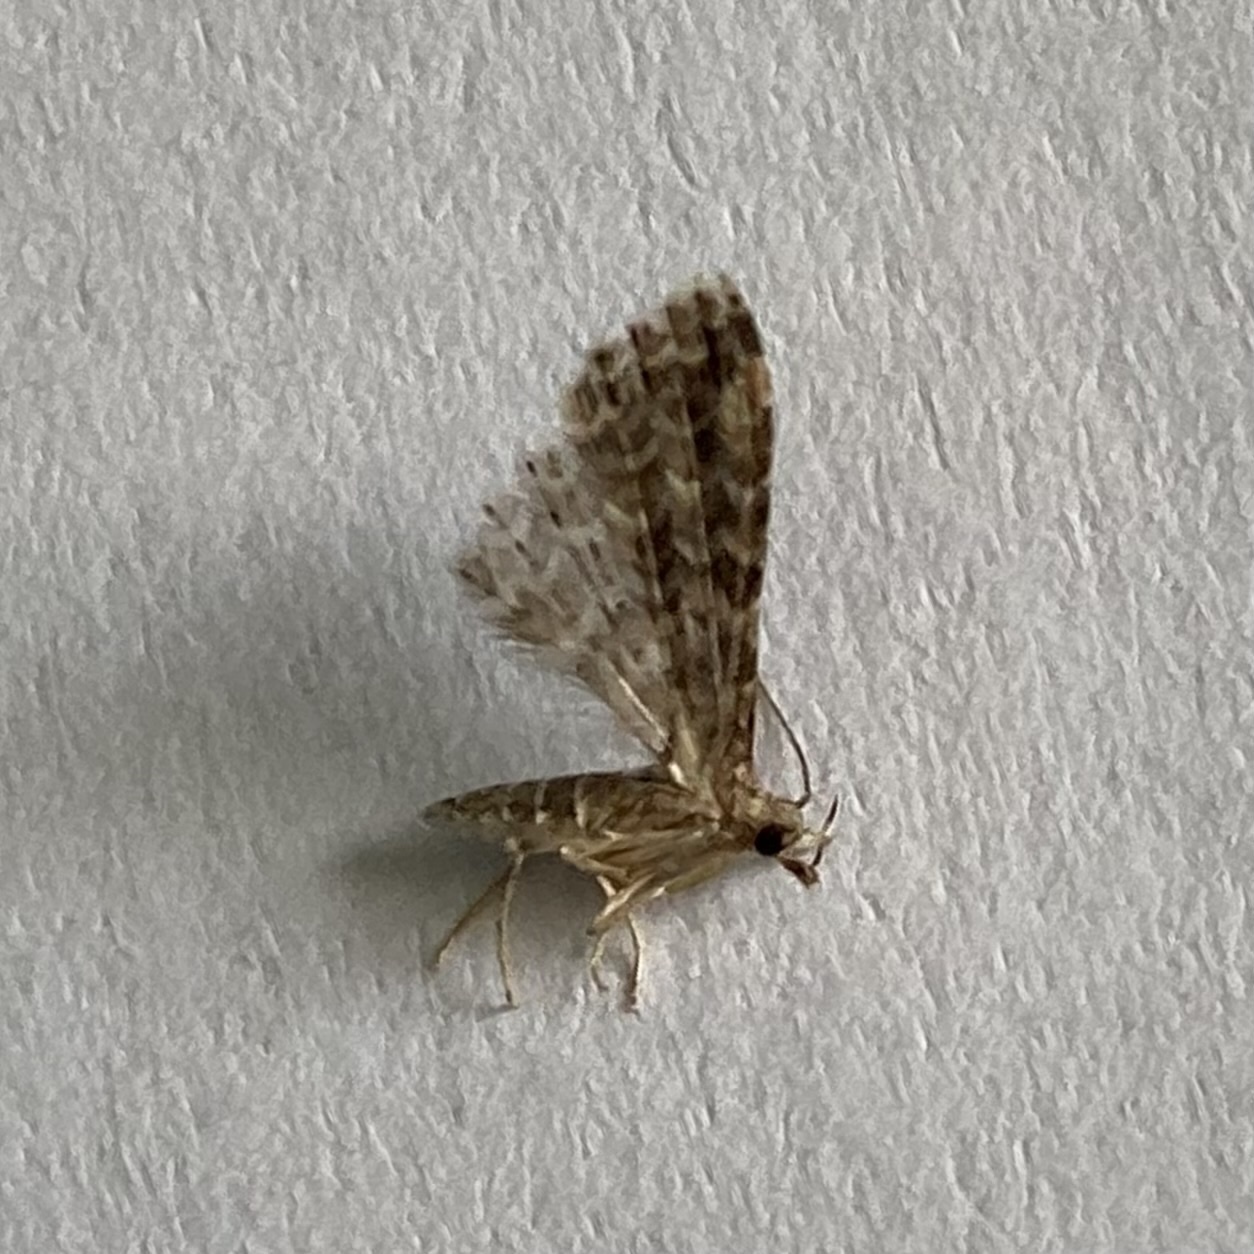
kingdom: Animalia
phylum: Arthropoda
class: Insecta
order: Lepidoptera
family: Alucitidae
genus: Alucita
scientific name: Alucita
